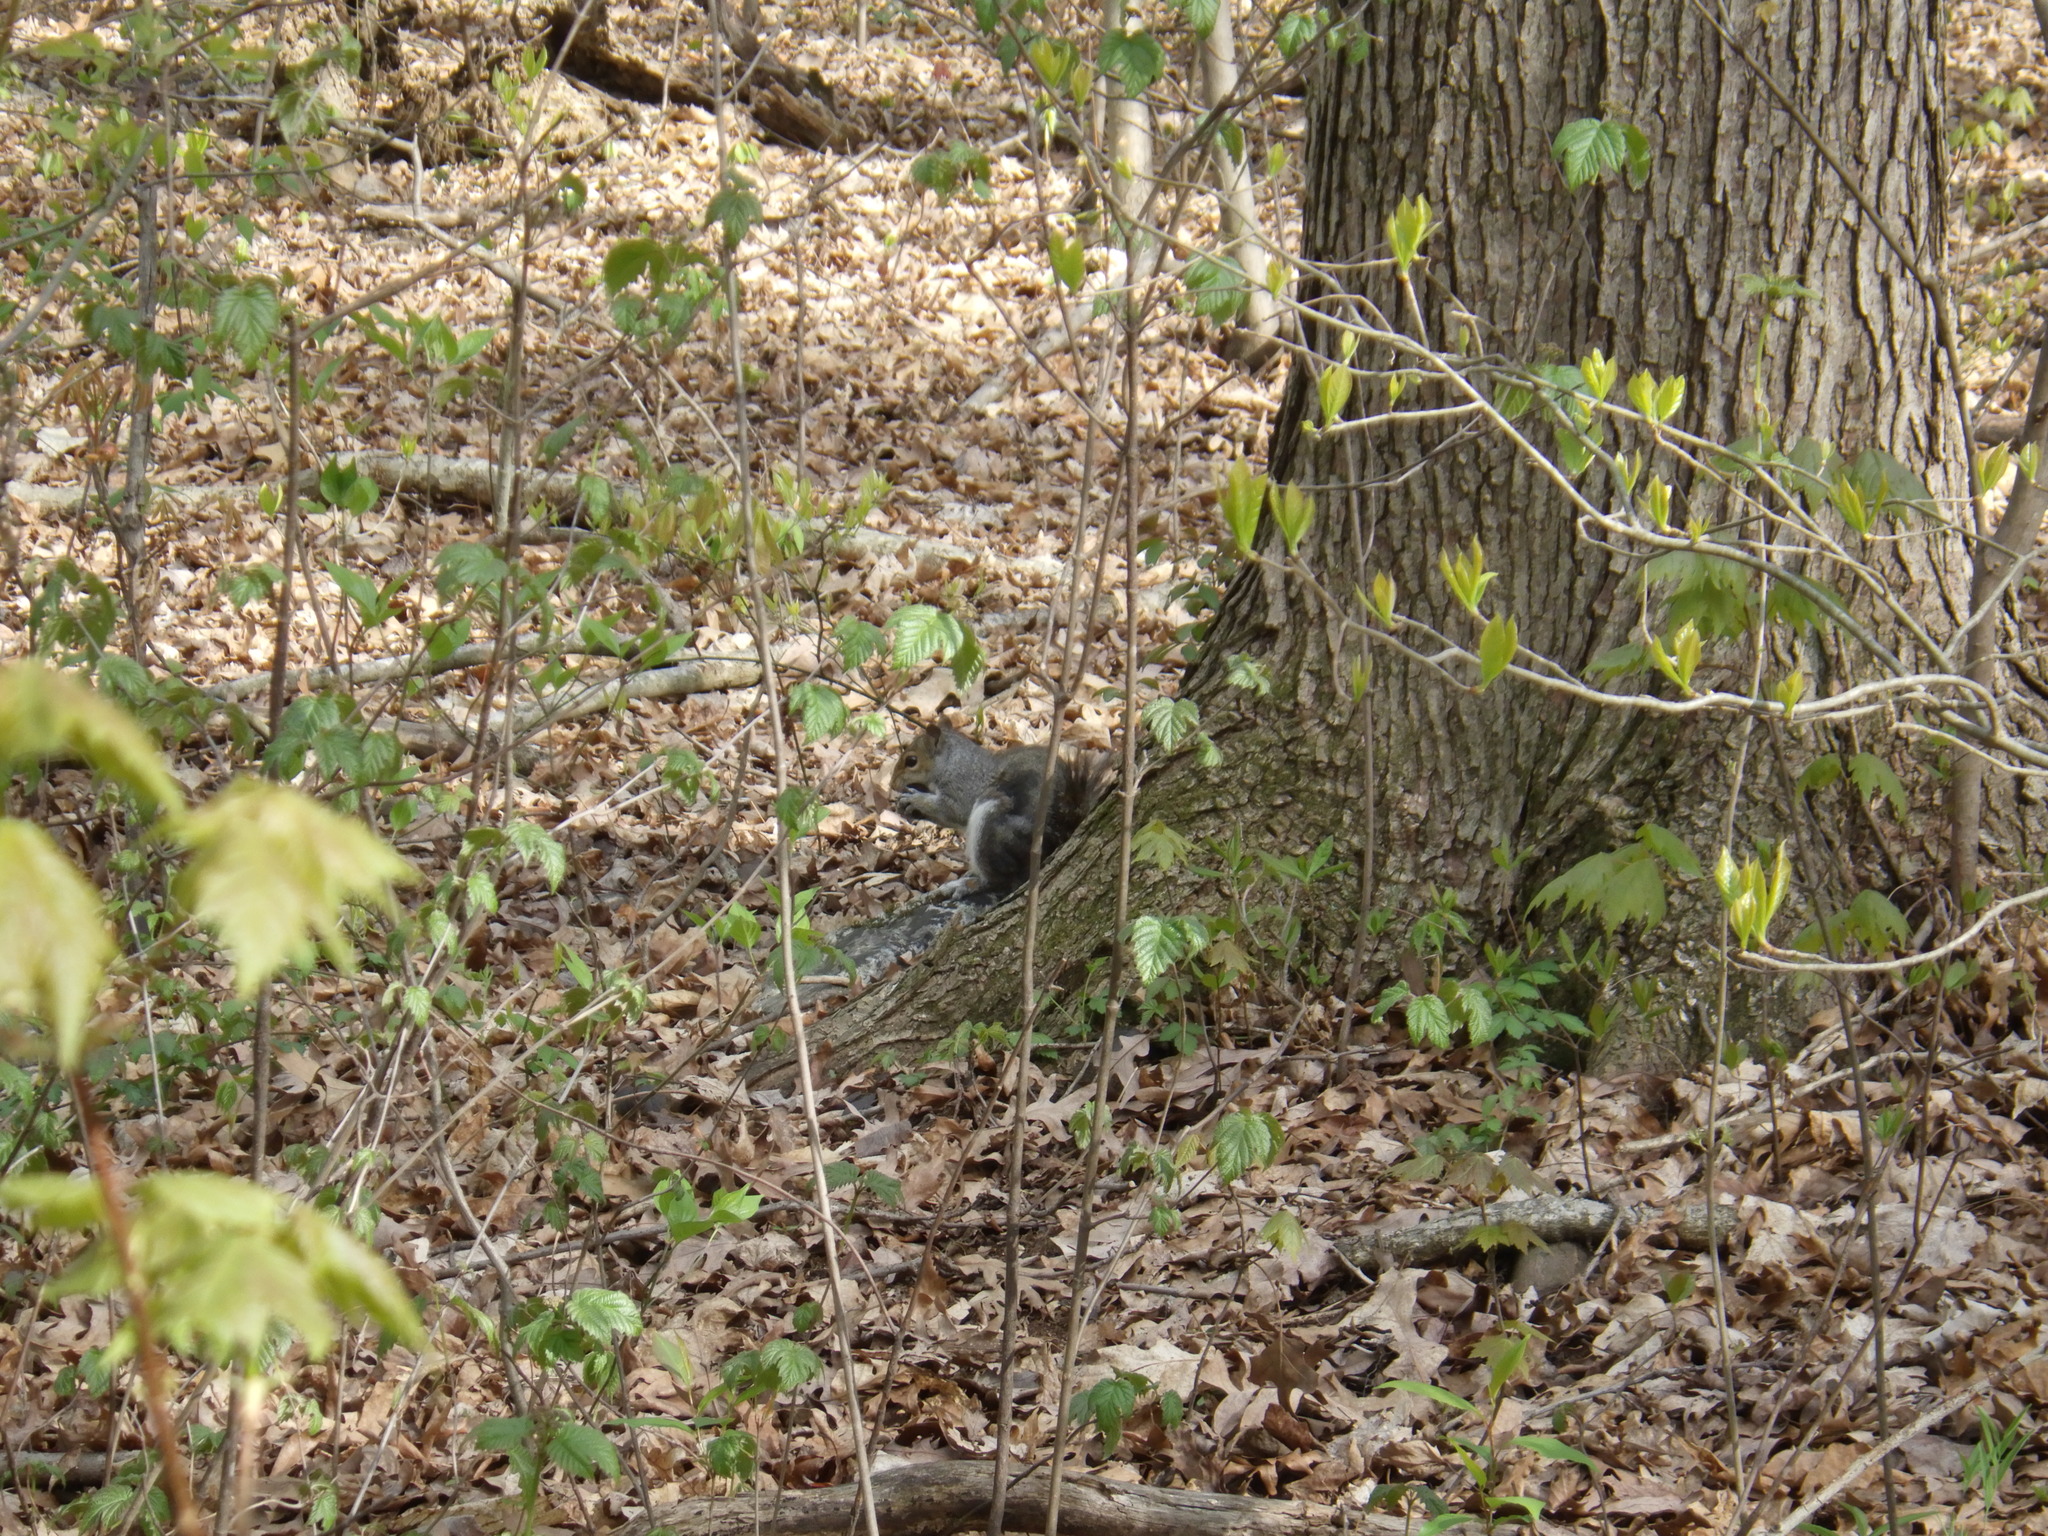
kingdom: Animalia
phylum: Chordata
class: Mammalia
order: Rodentia
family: Sciuridae
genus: Sciurus
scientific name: Sciurus carolinensis
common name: Eastern gray squirrel
